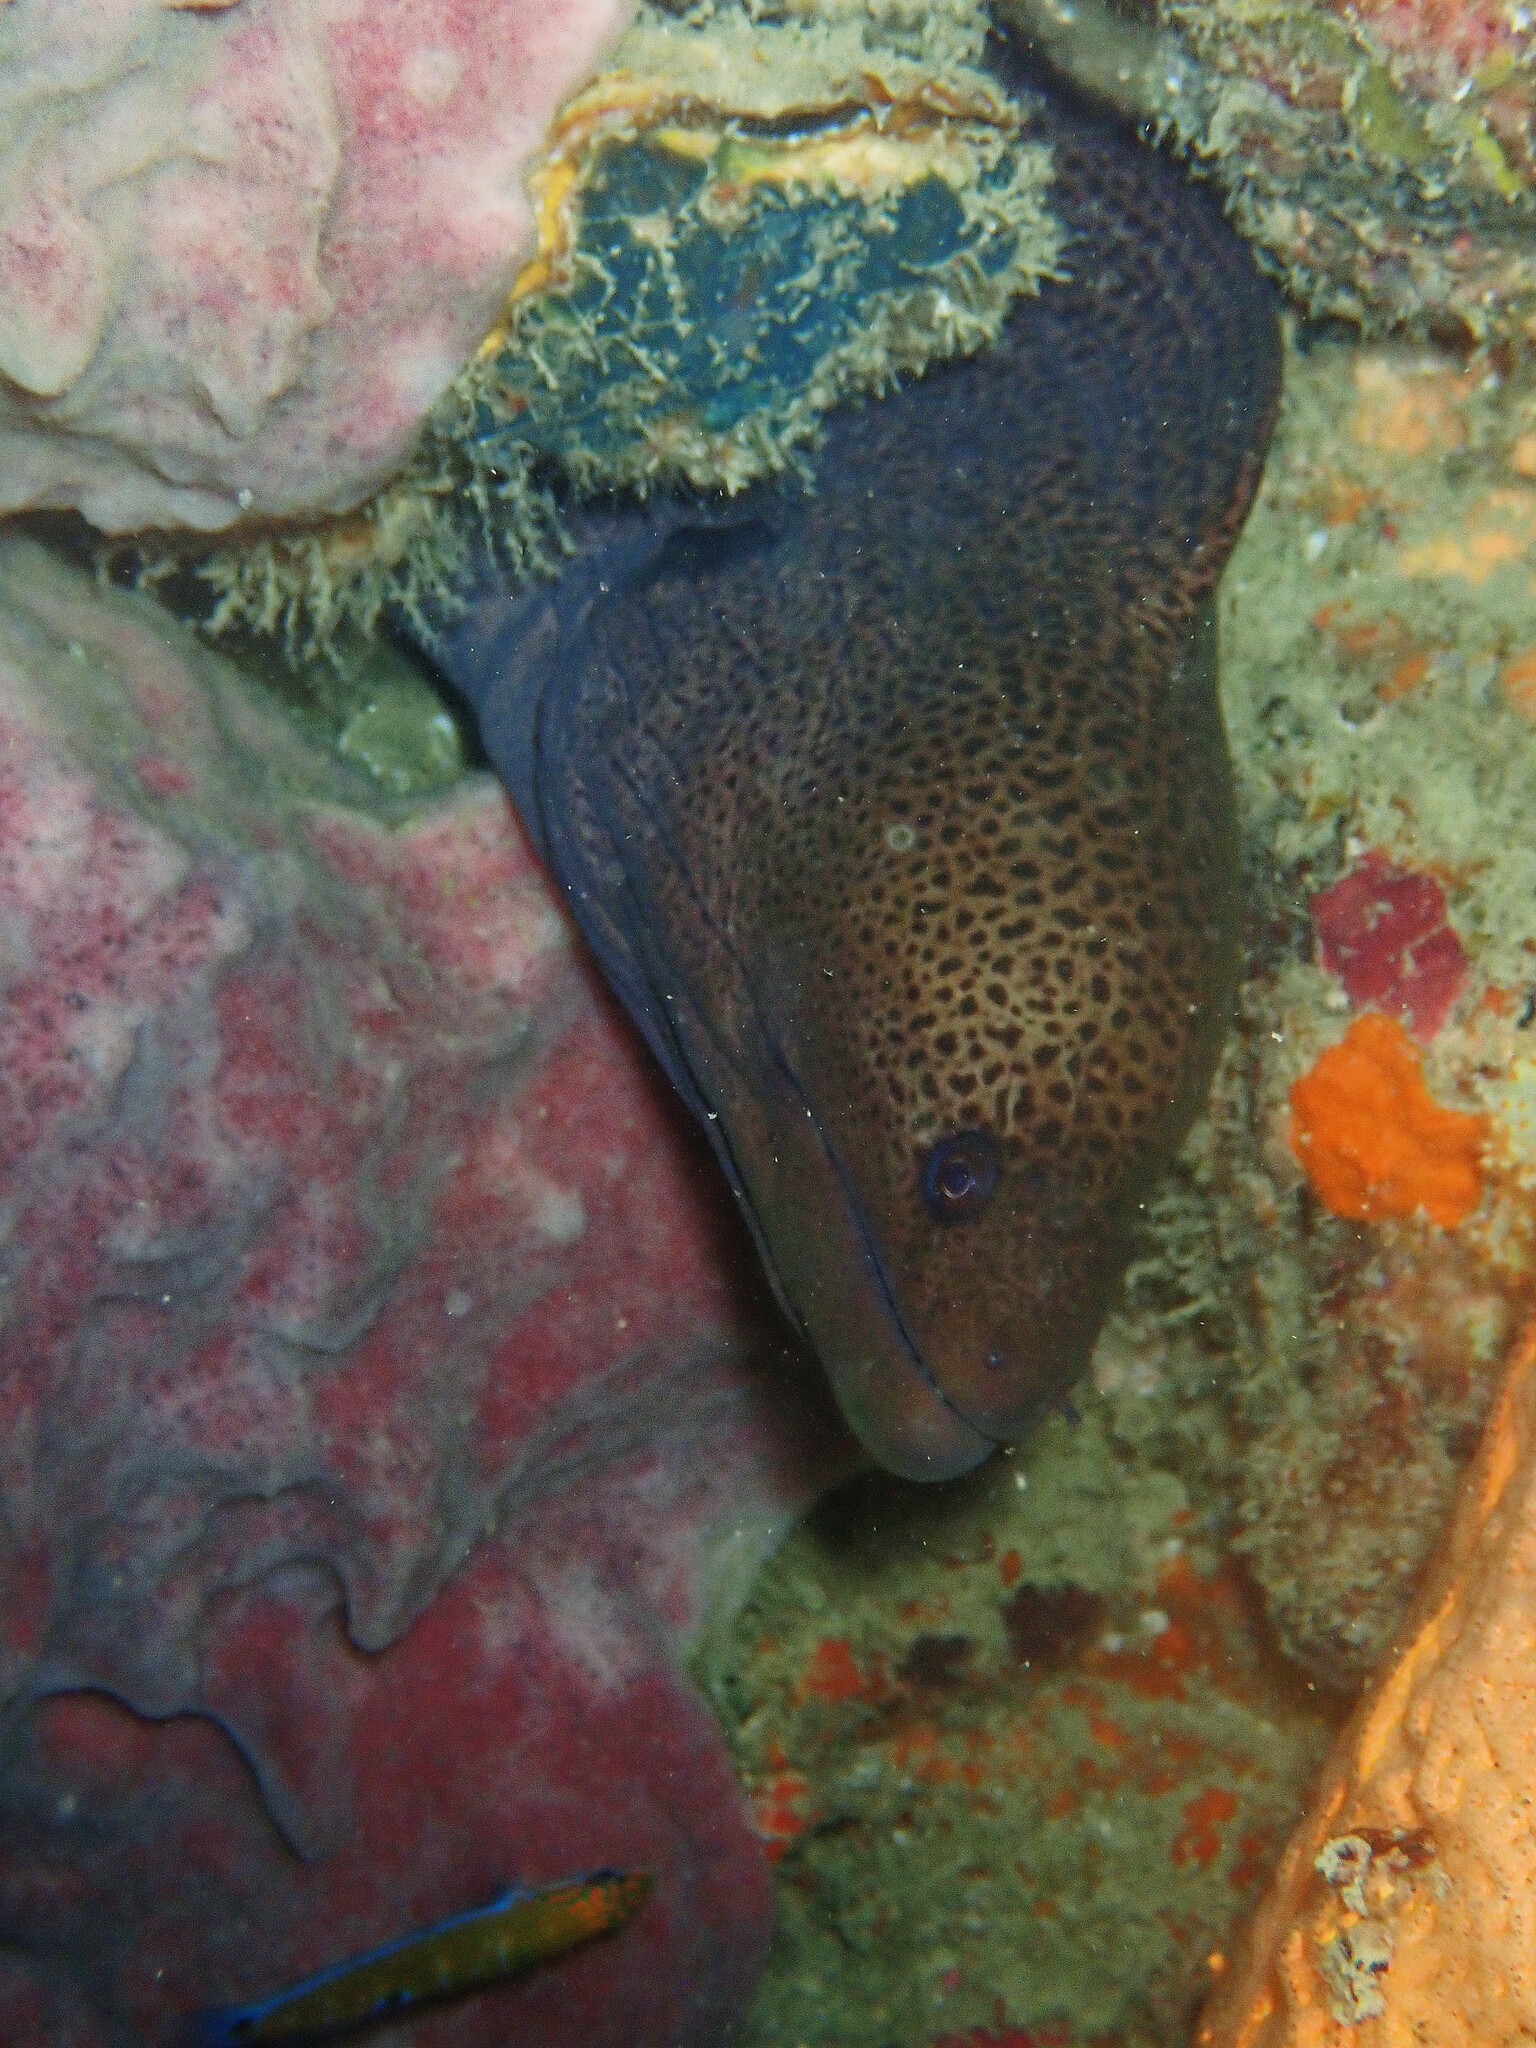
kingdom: Animalia
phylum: Chordata
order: Anguilliformes
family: Muraenidae
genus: Gymnothorax
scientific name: Gymnothorax javanicus
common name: Giant moray
